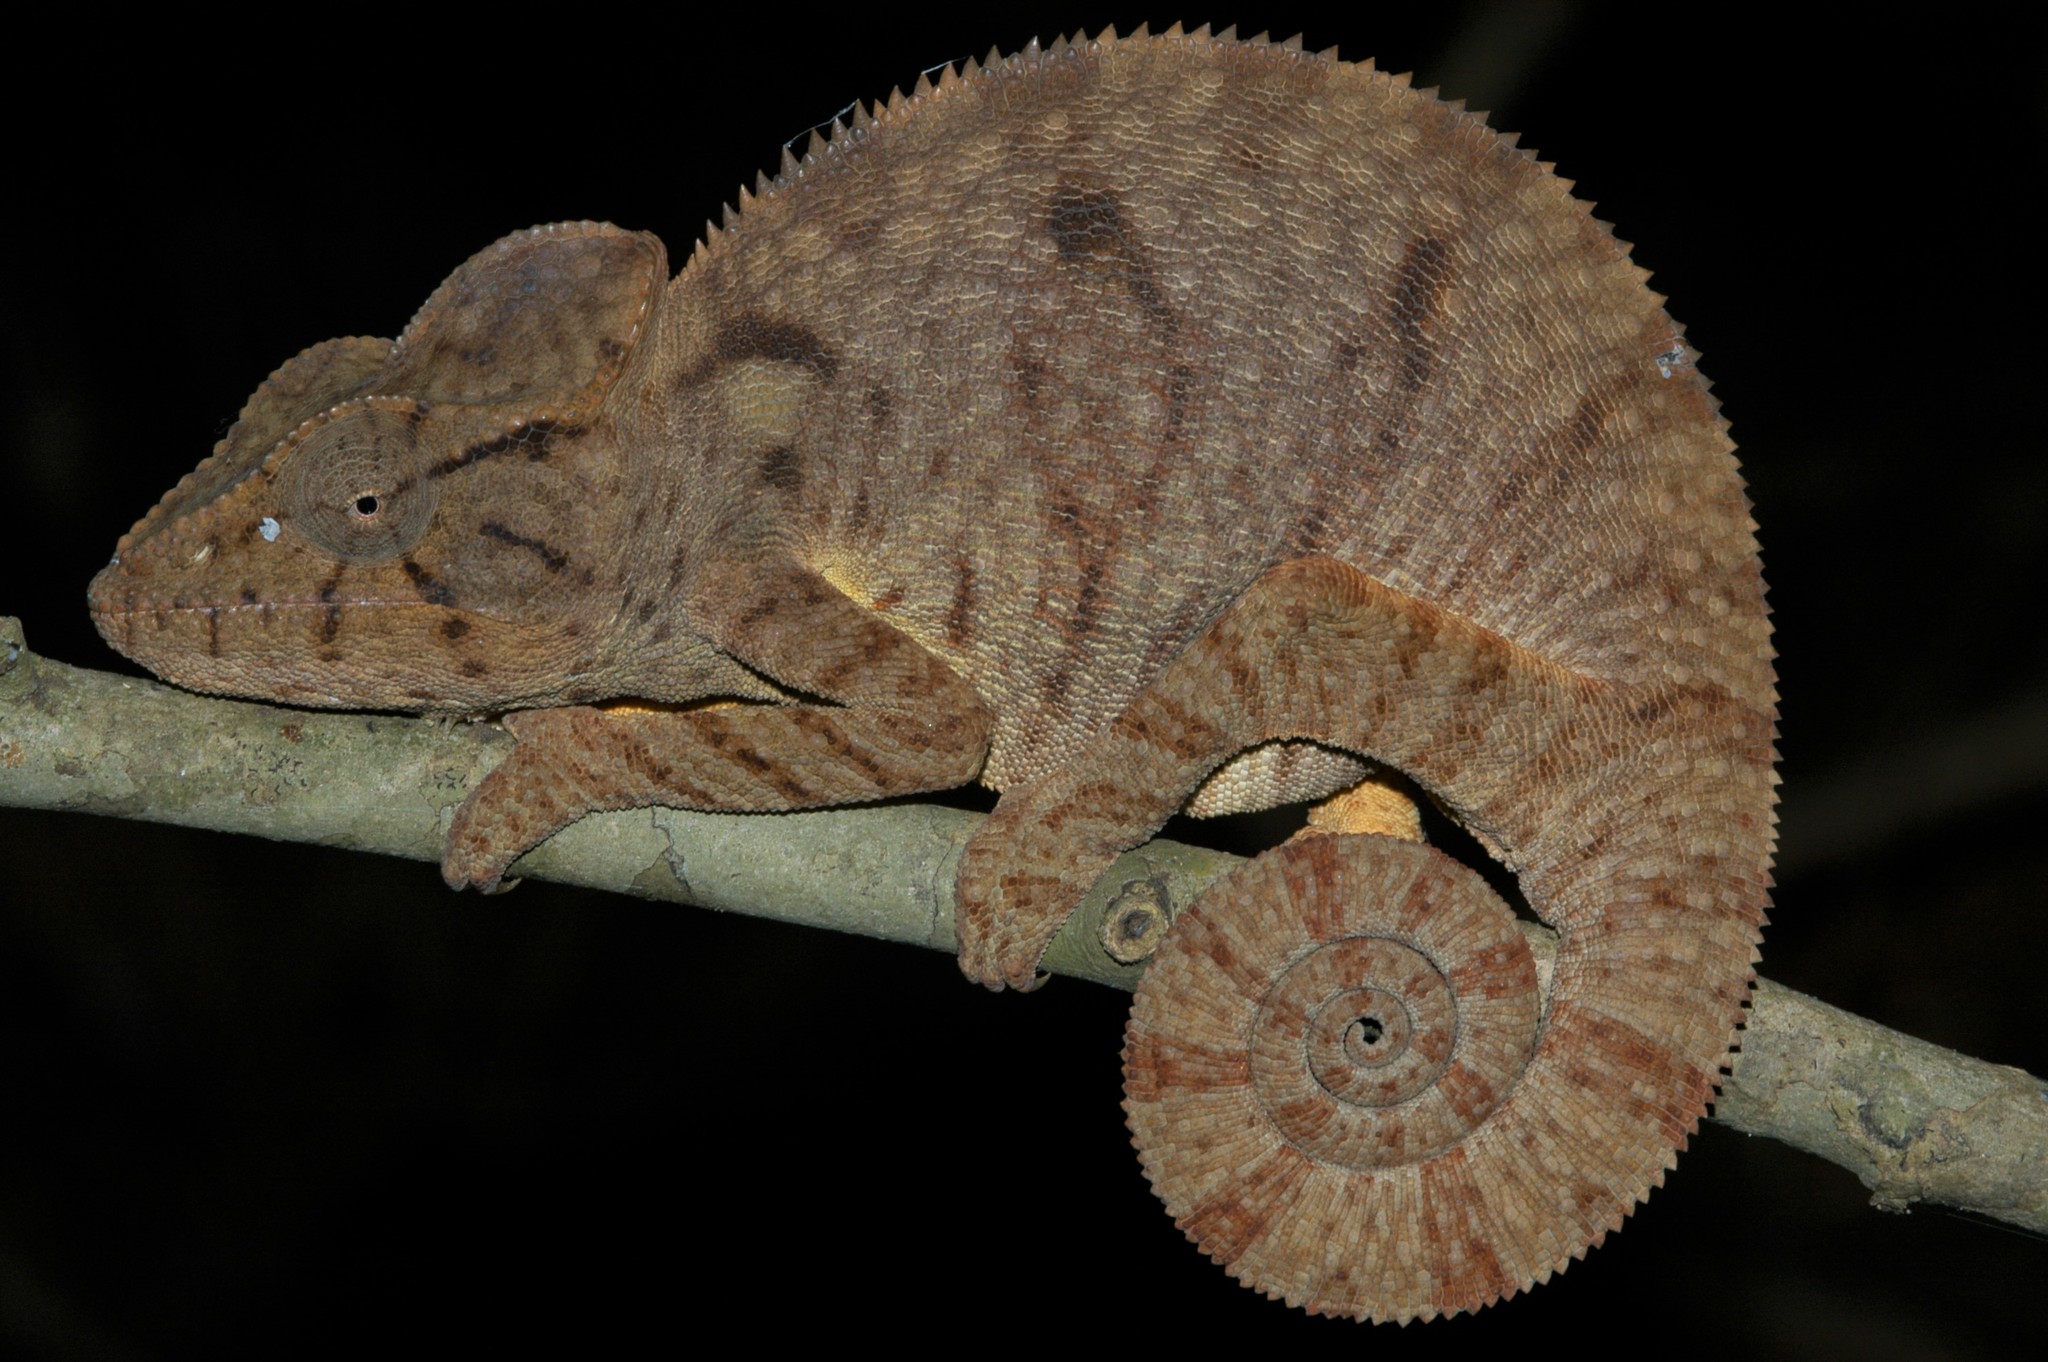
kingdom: Animalia
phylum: Chordata
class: Squamata
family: Chamaeleonidae
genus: Furcifer
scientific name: Furcifer oustaleti
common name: Oustalet's chameleon
